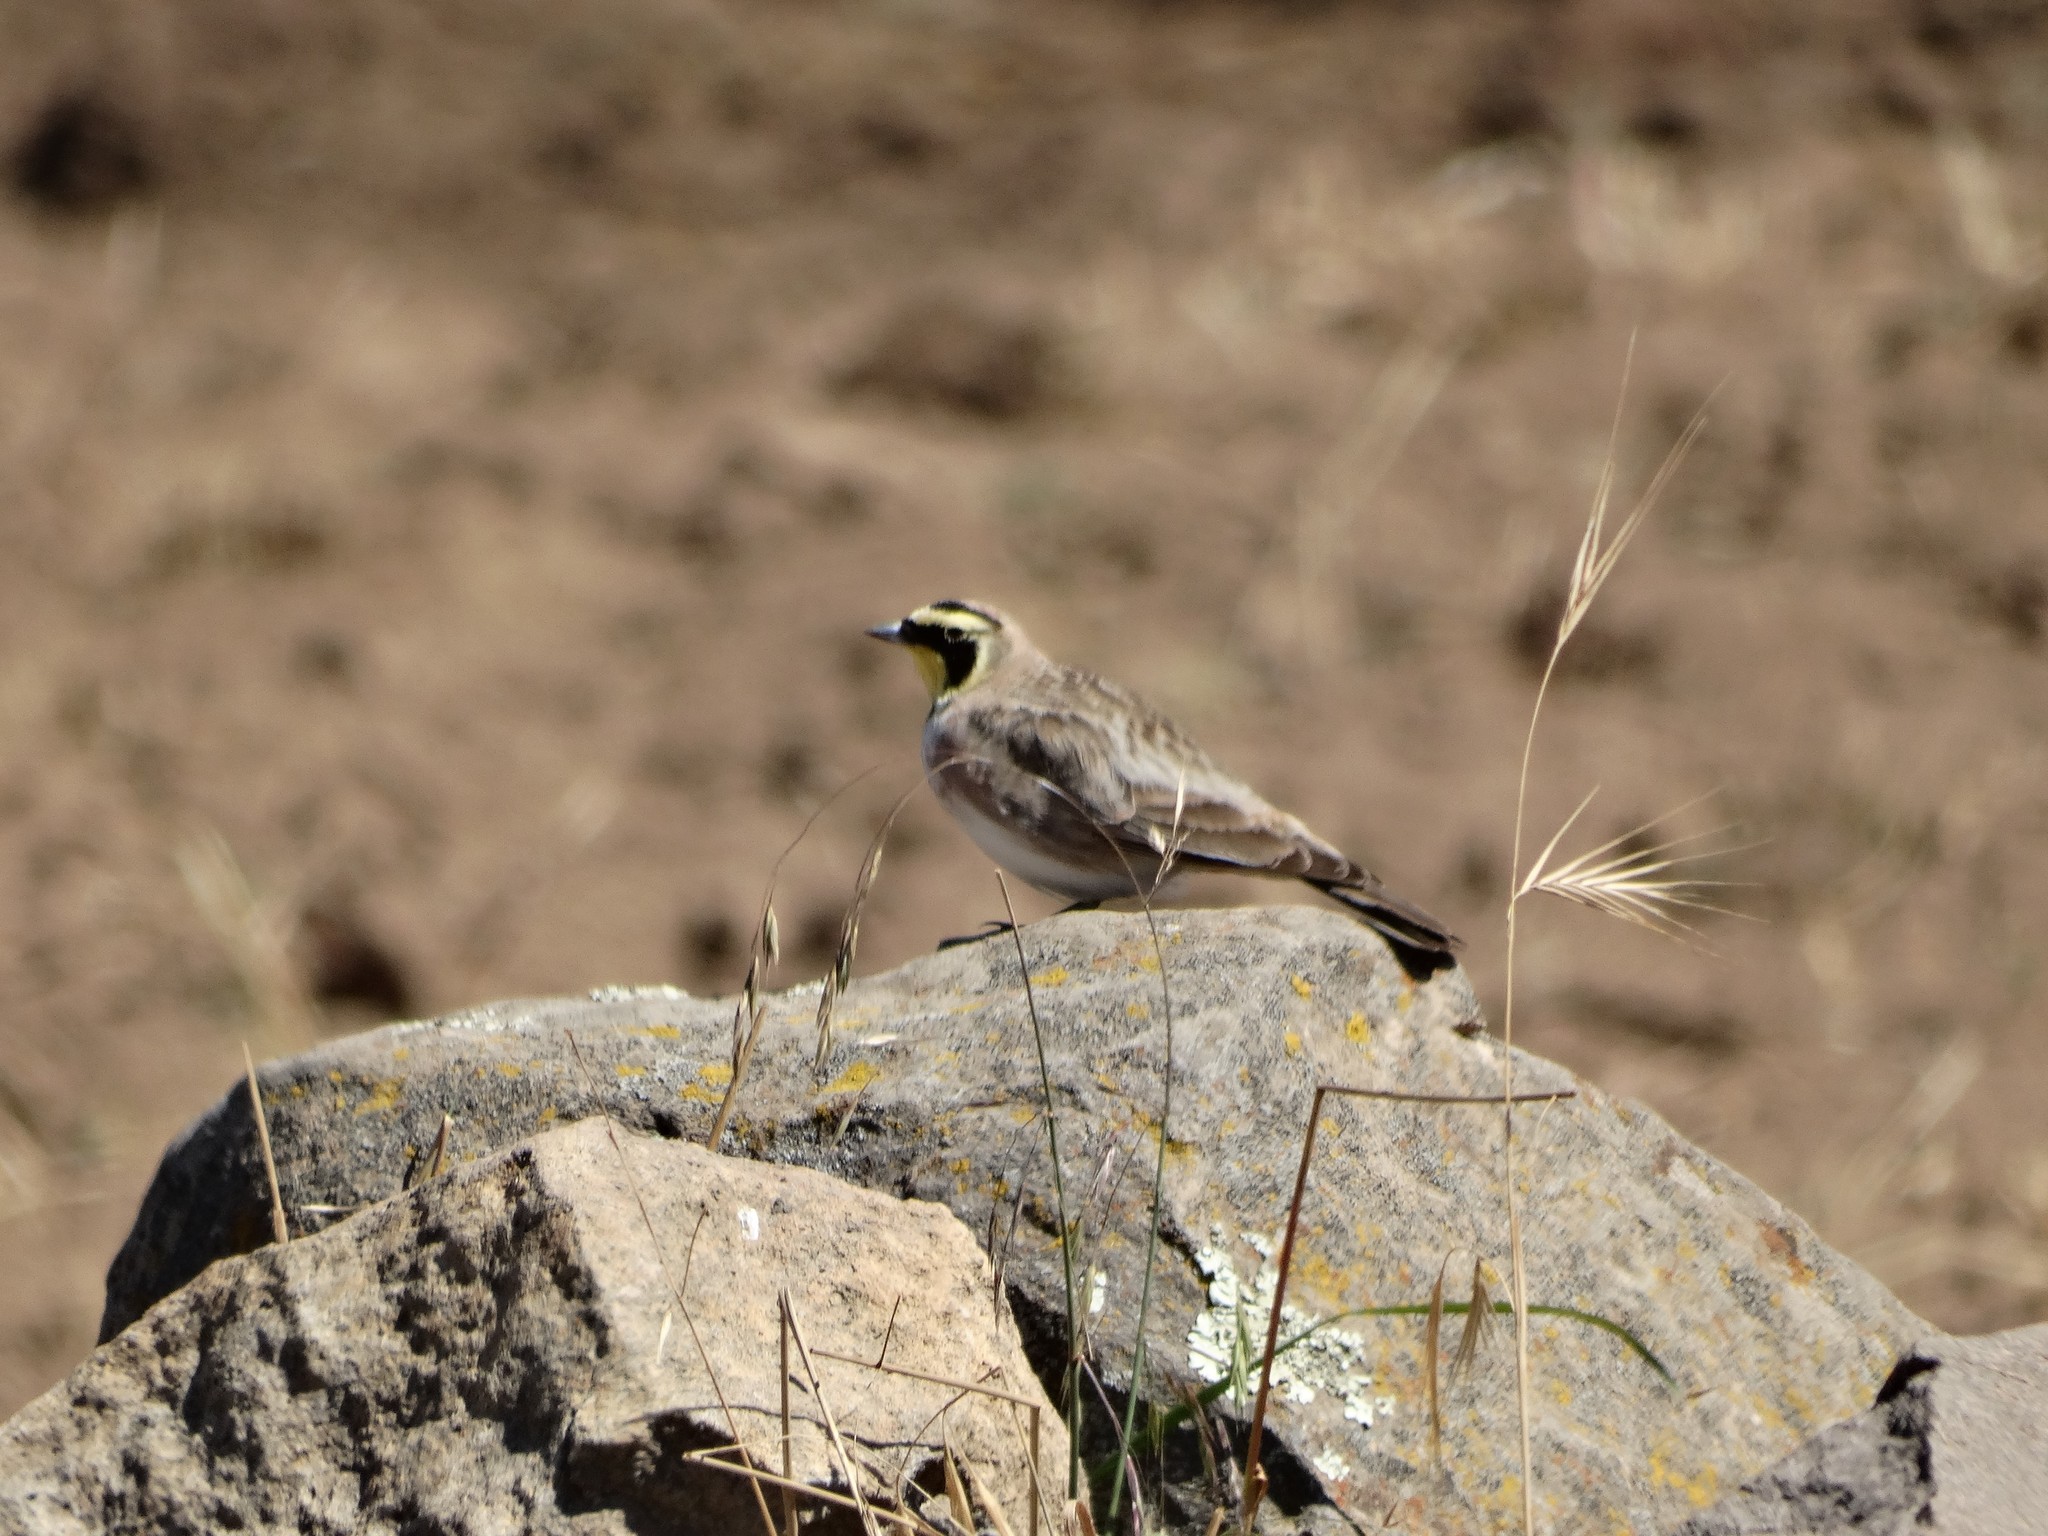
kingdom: Animalia
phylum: Chordata
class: Aves
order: Passeriformes
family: Alaudidae
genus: Eremophila
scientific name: Eremophila alpestris
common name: Horned lark
